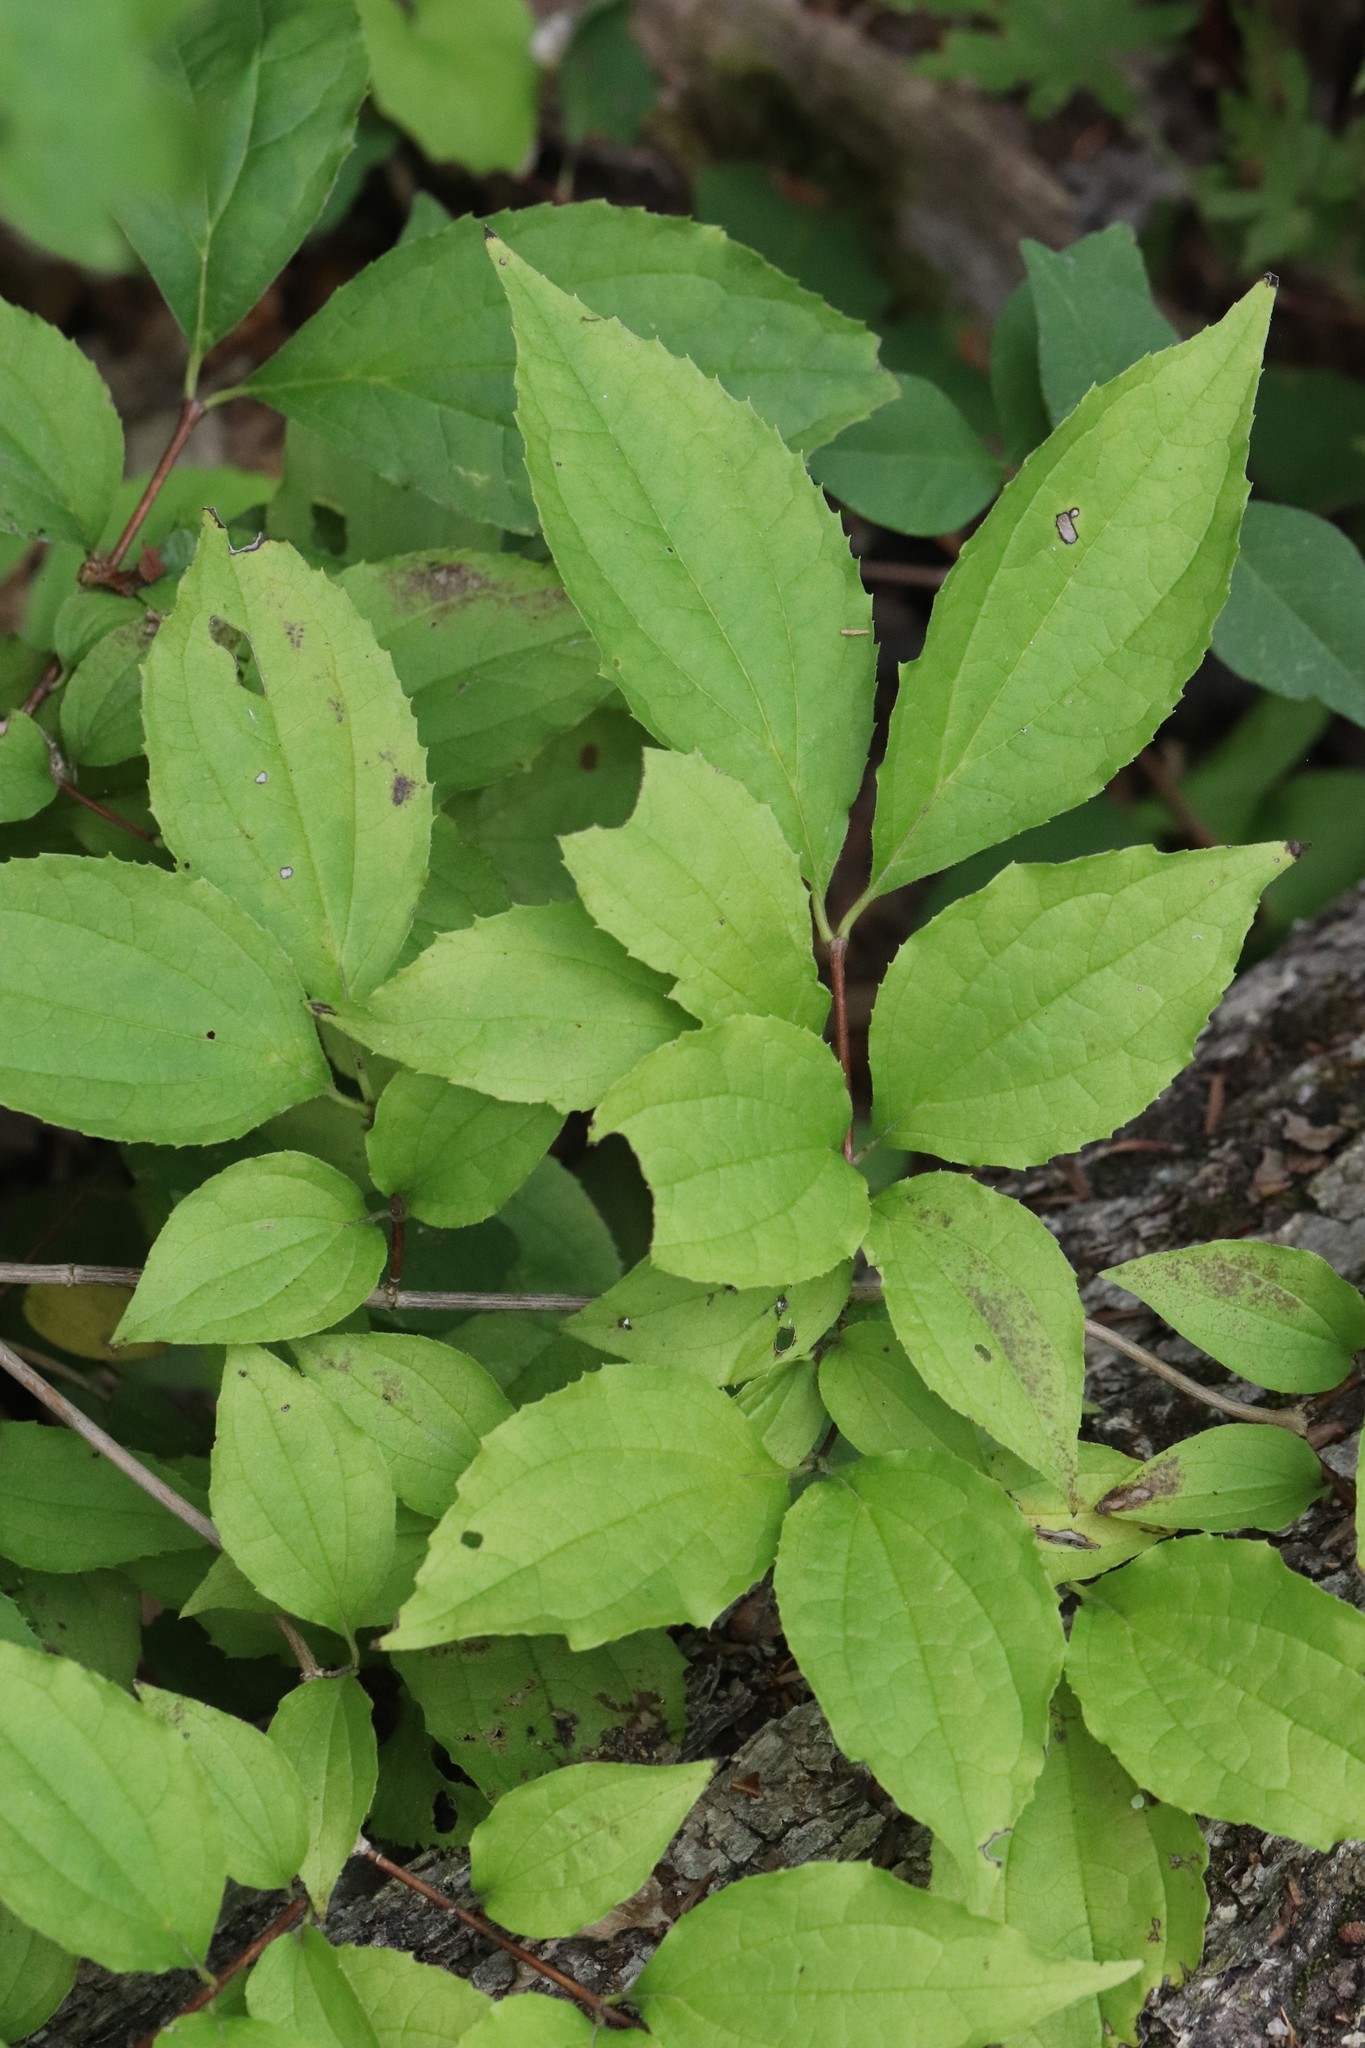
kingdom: Plantae
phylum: Tracheophyta
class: Magnoliopsida
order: Cornales
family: Hydrangeaceae
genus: Philadelphus
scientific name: Philadelphus tenuifolius
